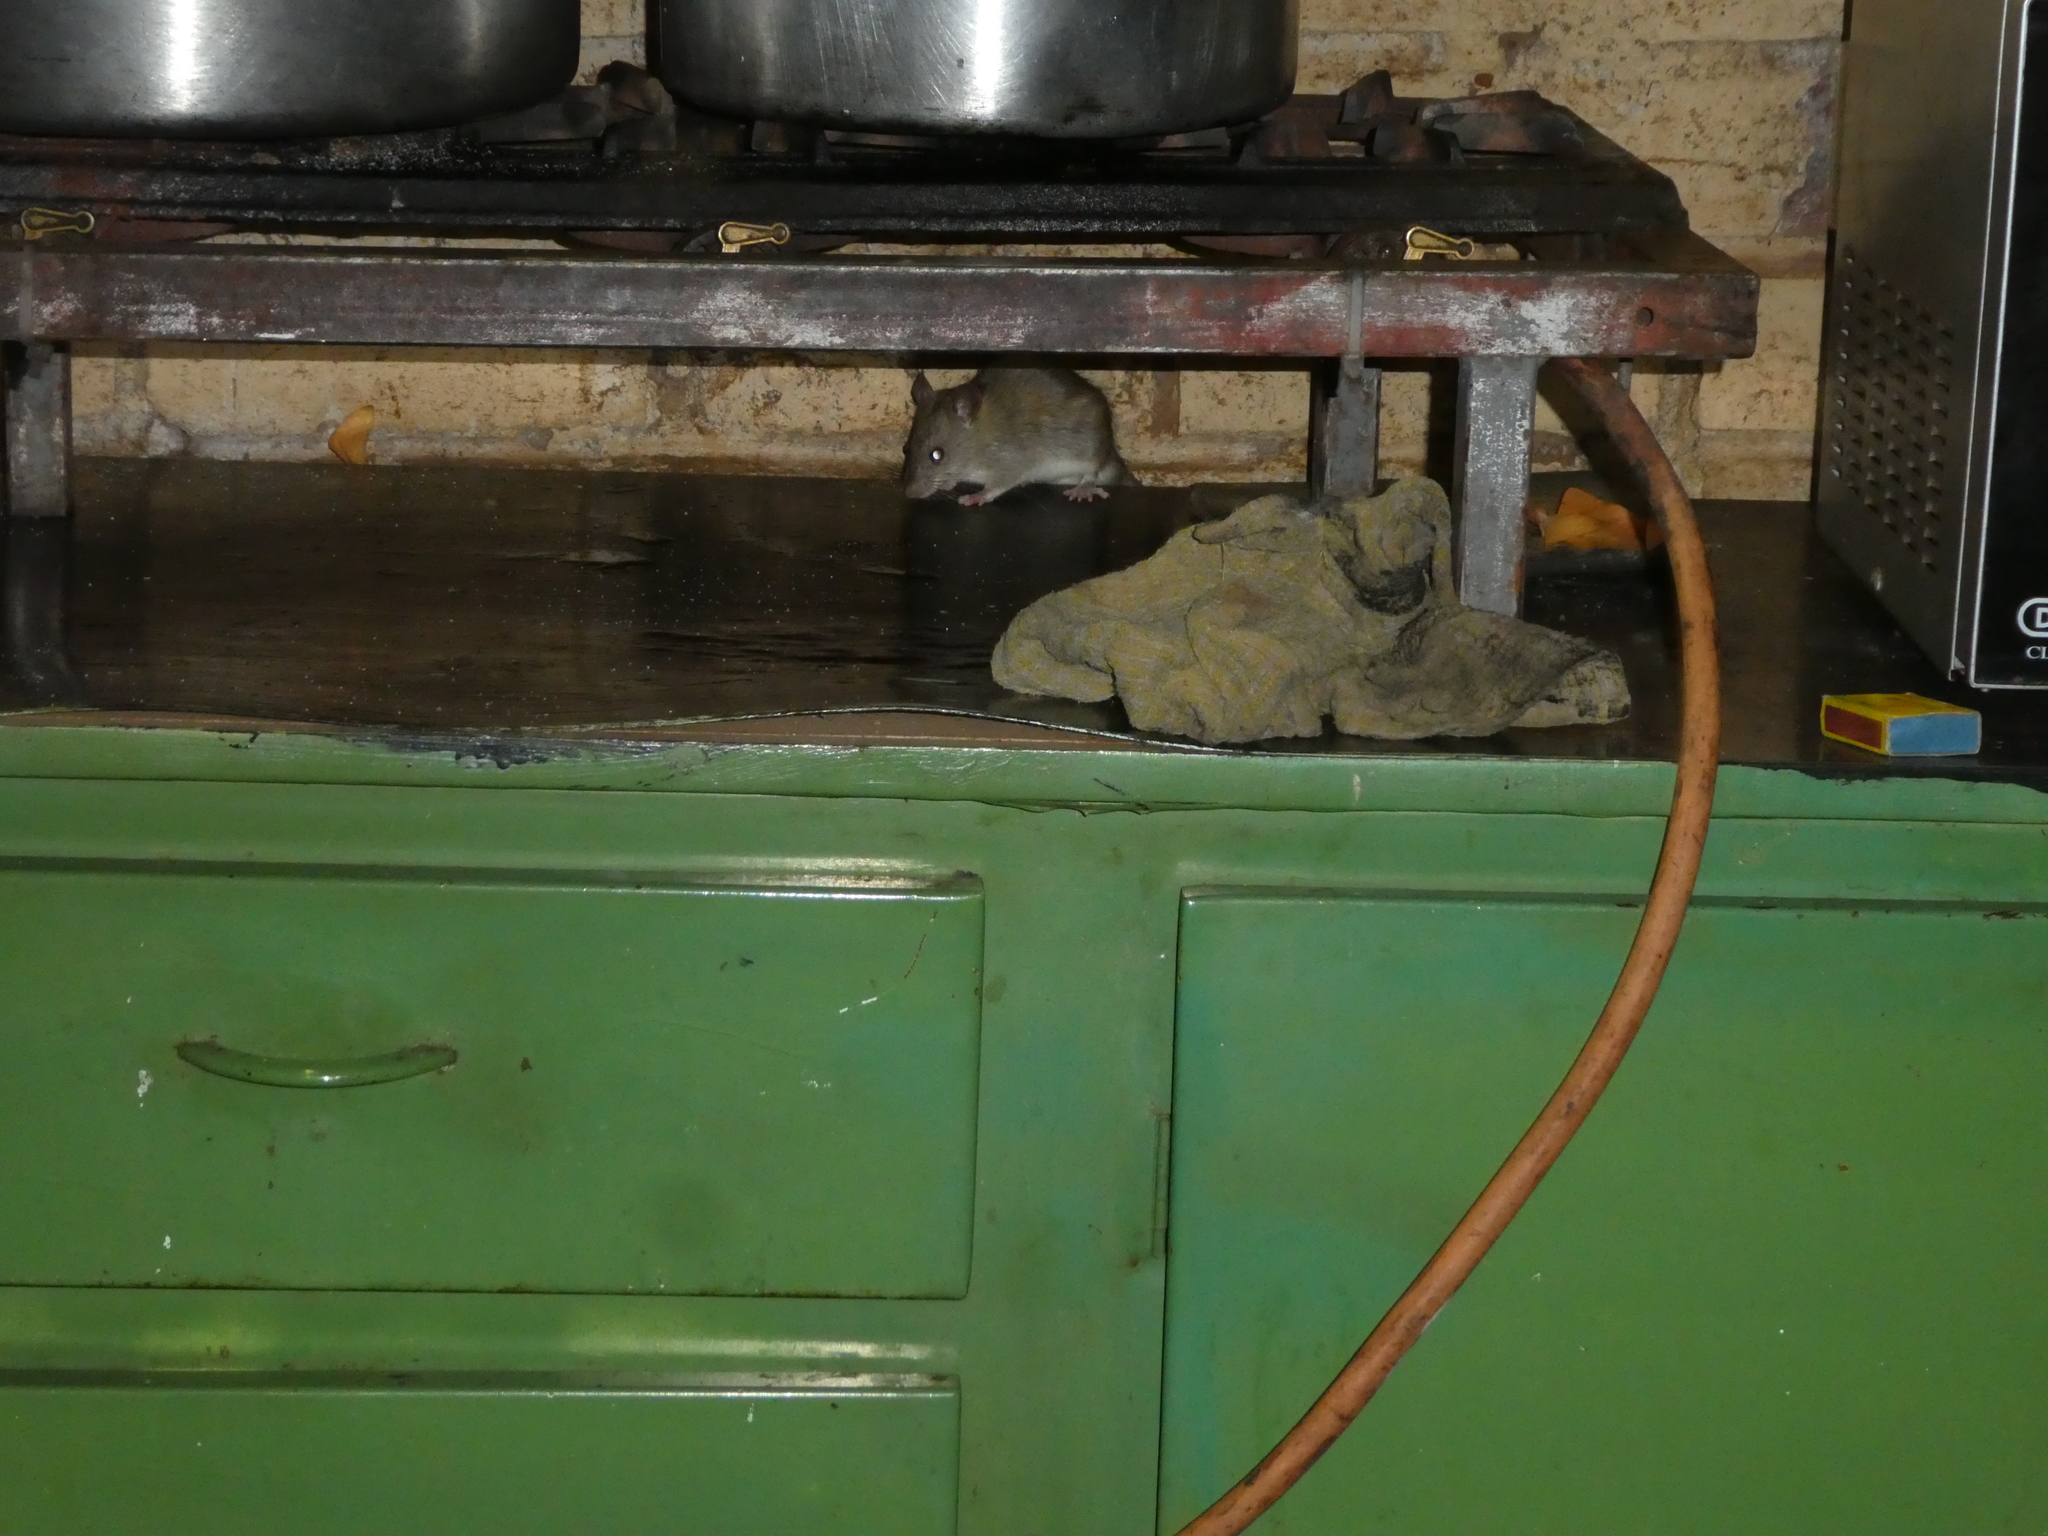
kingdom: Animalia
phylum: Chordata
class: Mammalia
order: Rodentia
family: Muridae
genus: Rattus
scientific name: Rattus norvegicus
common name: Brown rat
